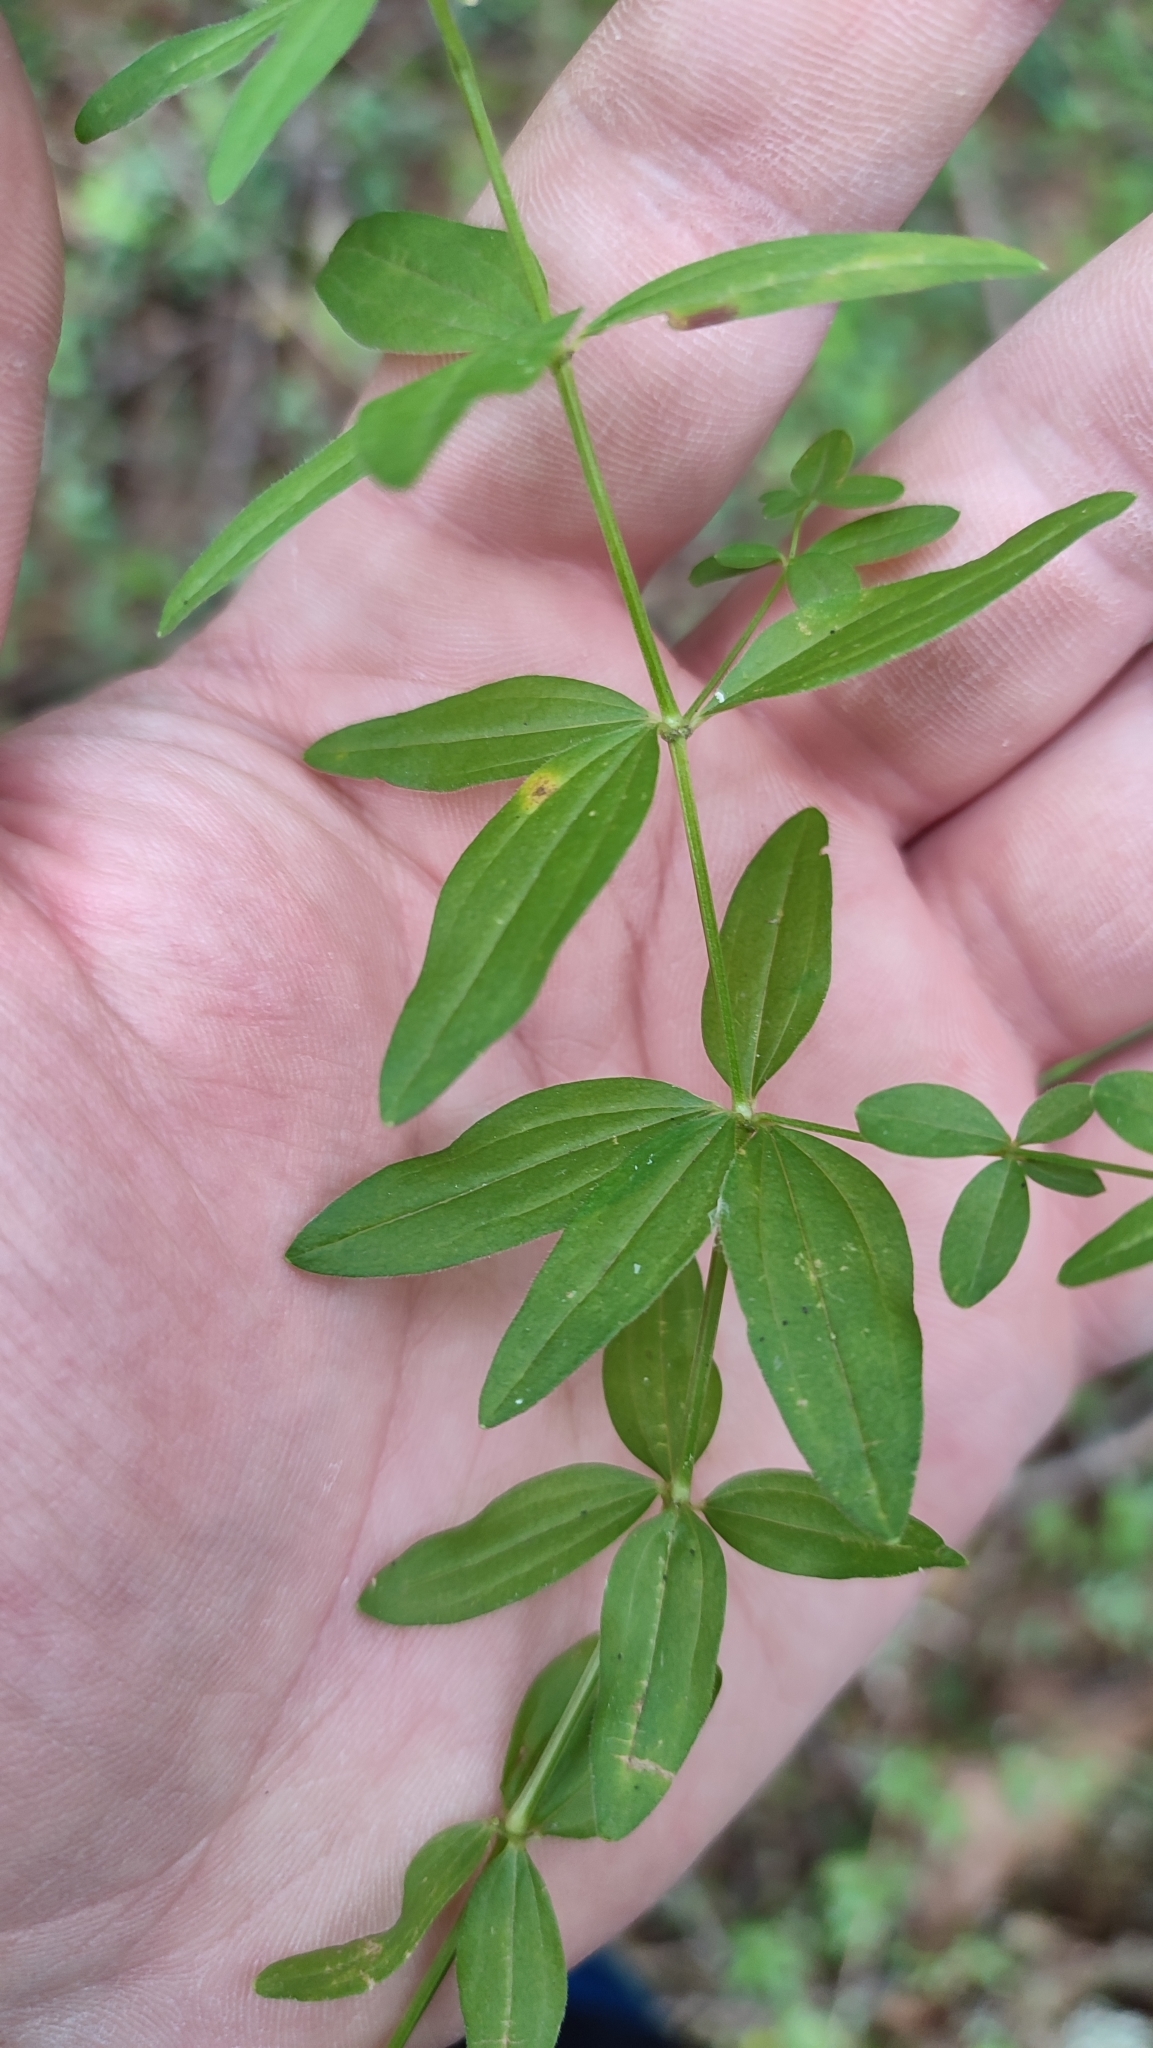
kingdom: Plantae
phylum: Tracheophyta
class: Magnoliopsida
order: Gentianales
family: Rubiaceae
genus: Galium
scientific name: Galium boreale
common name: Northern bedstraw
